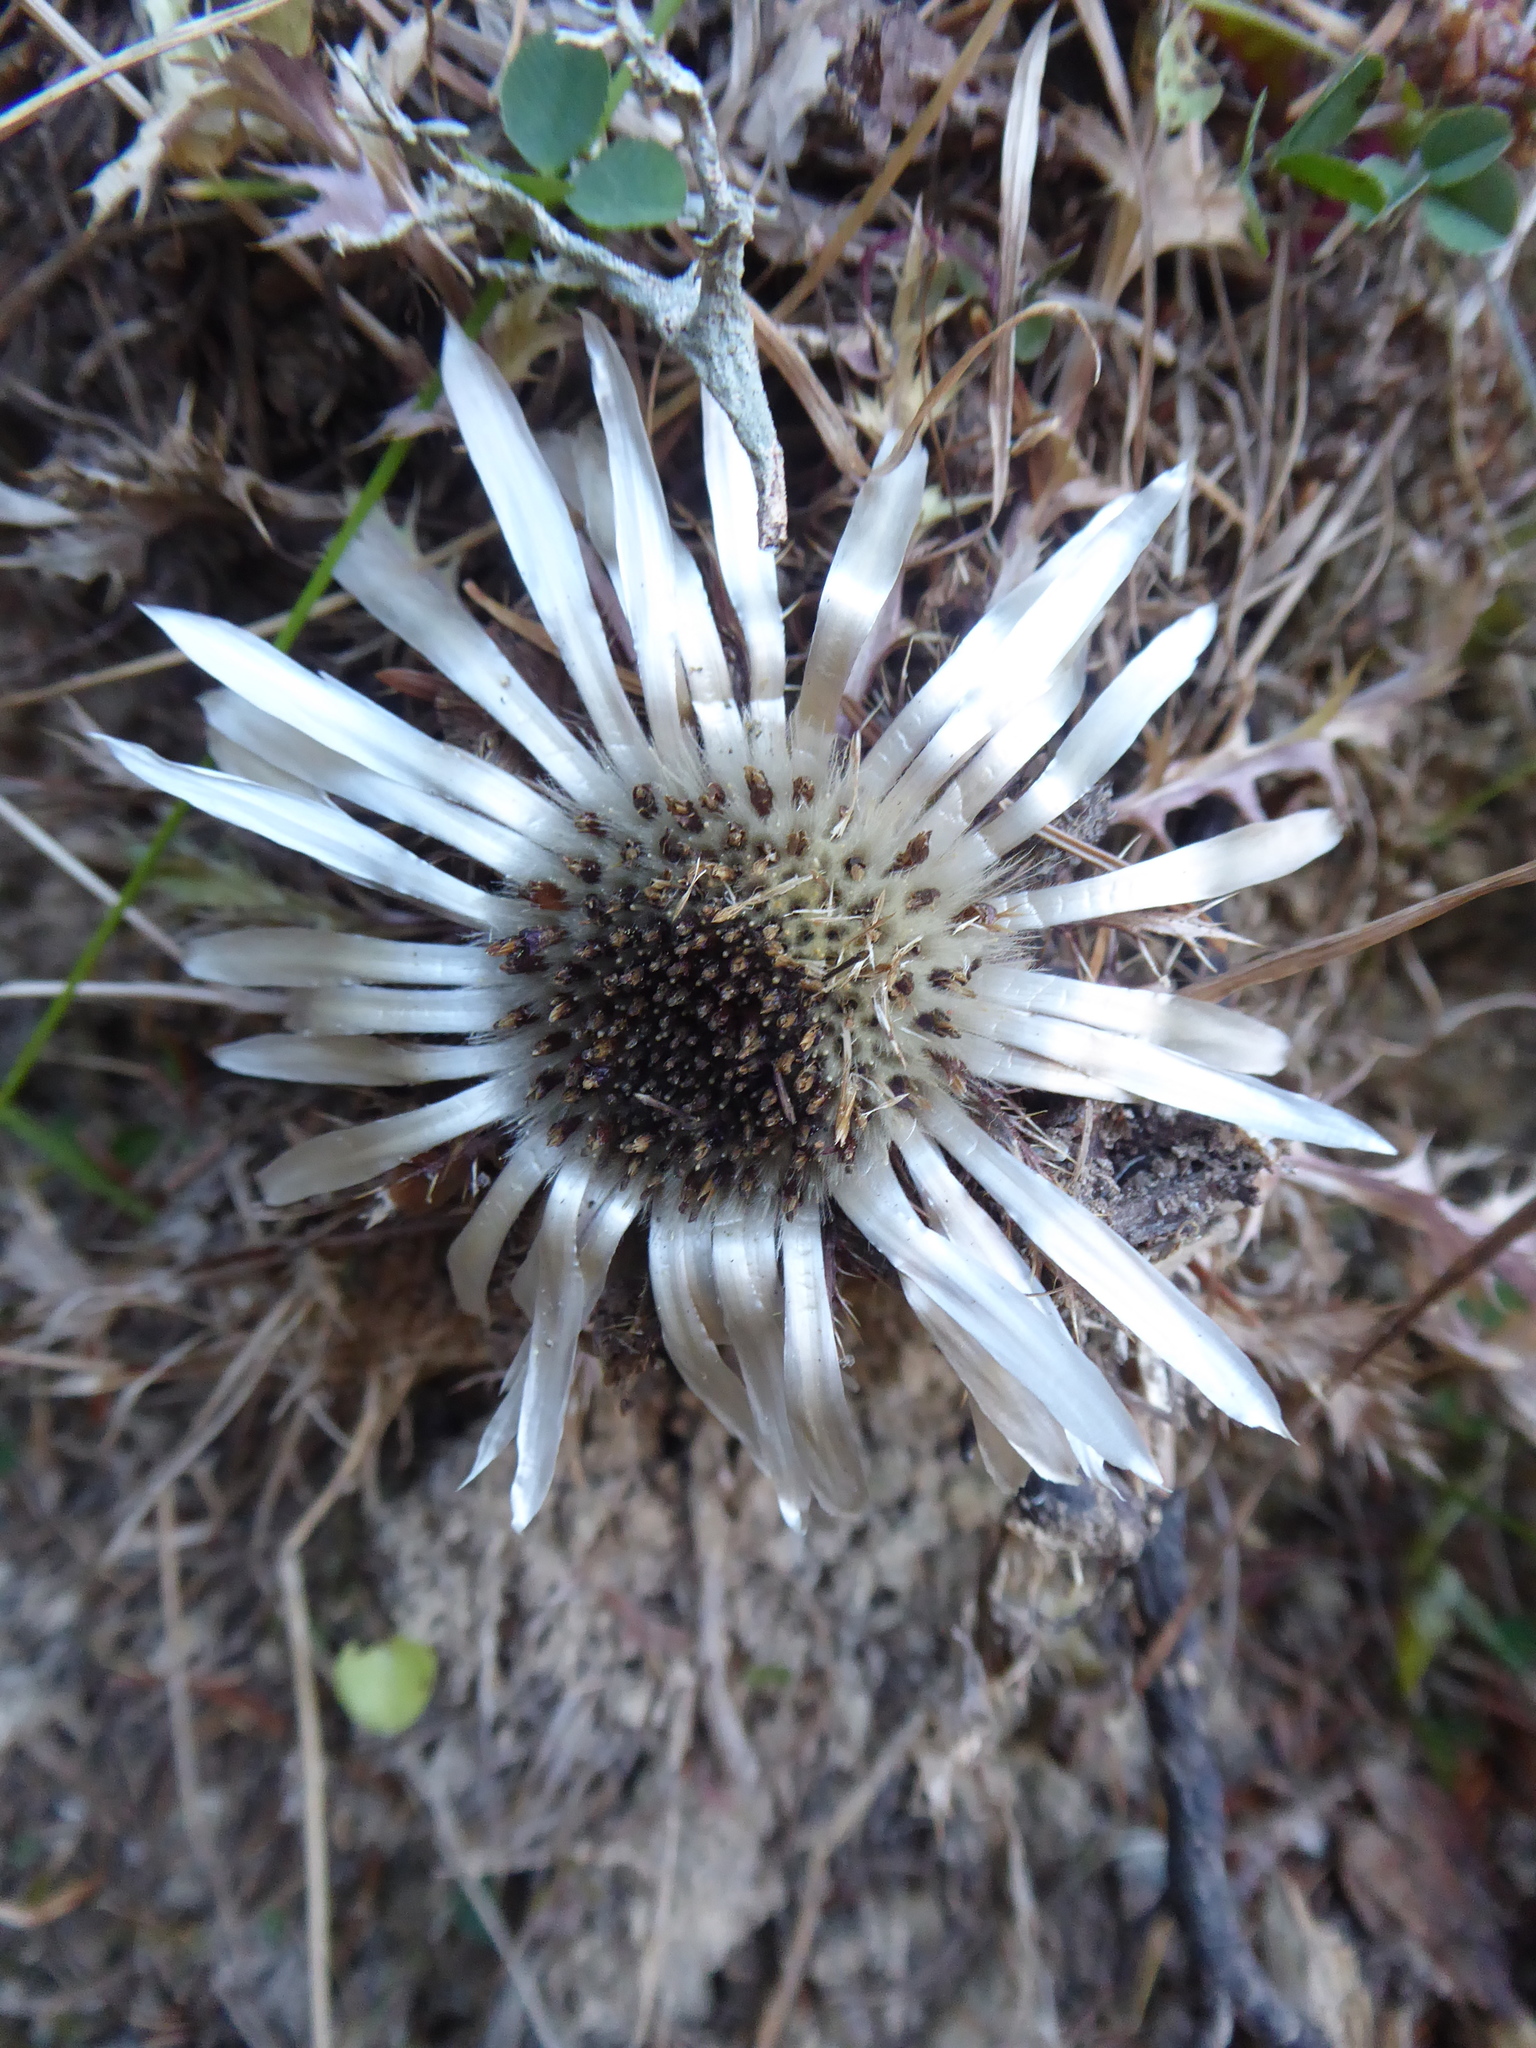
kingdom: Plantae
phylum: Tracheophyta
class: Magnoliopsida
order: Asterales
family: Asteraceae
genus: Carlina
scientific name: Carlina acaulis
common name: Stemless carline thistle
